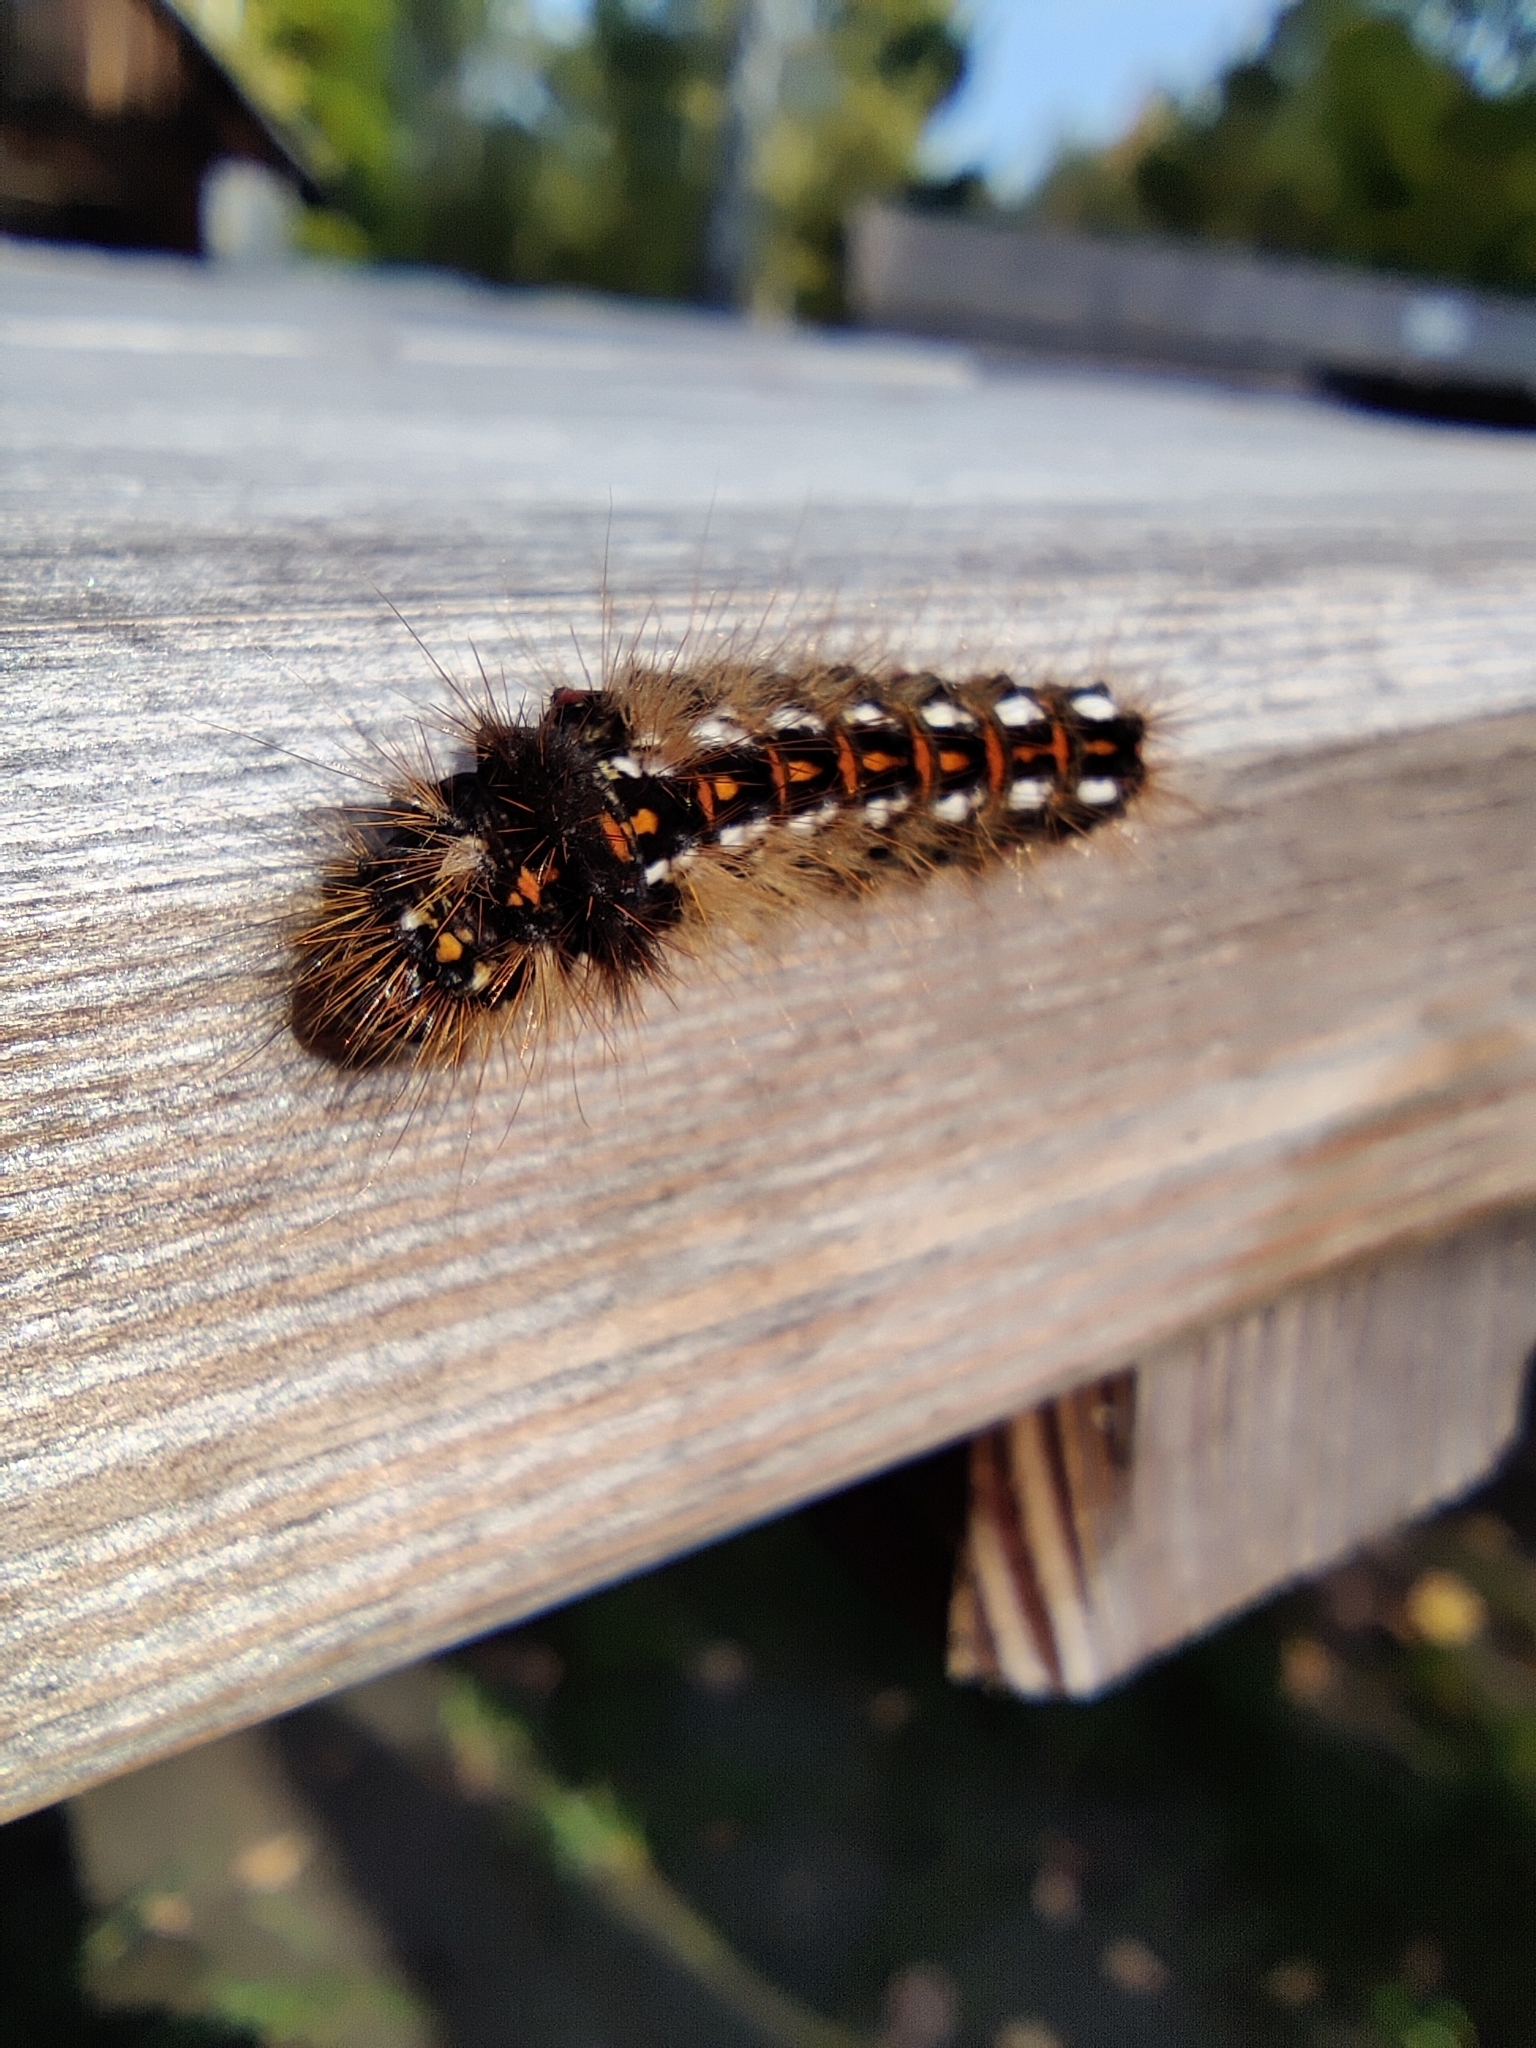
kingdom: Animalia
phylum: Arthropoda
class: Insecta
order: Lepidoptera
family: Noctuidae
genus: Acronicta
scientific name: Acronicta rumicis
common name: Knot grass
